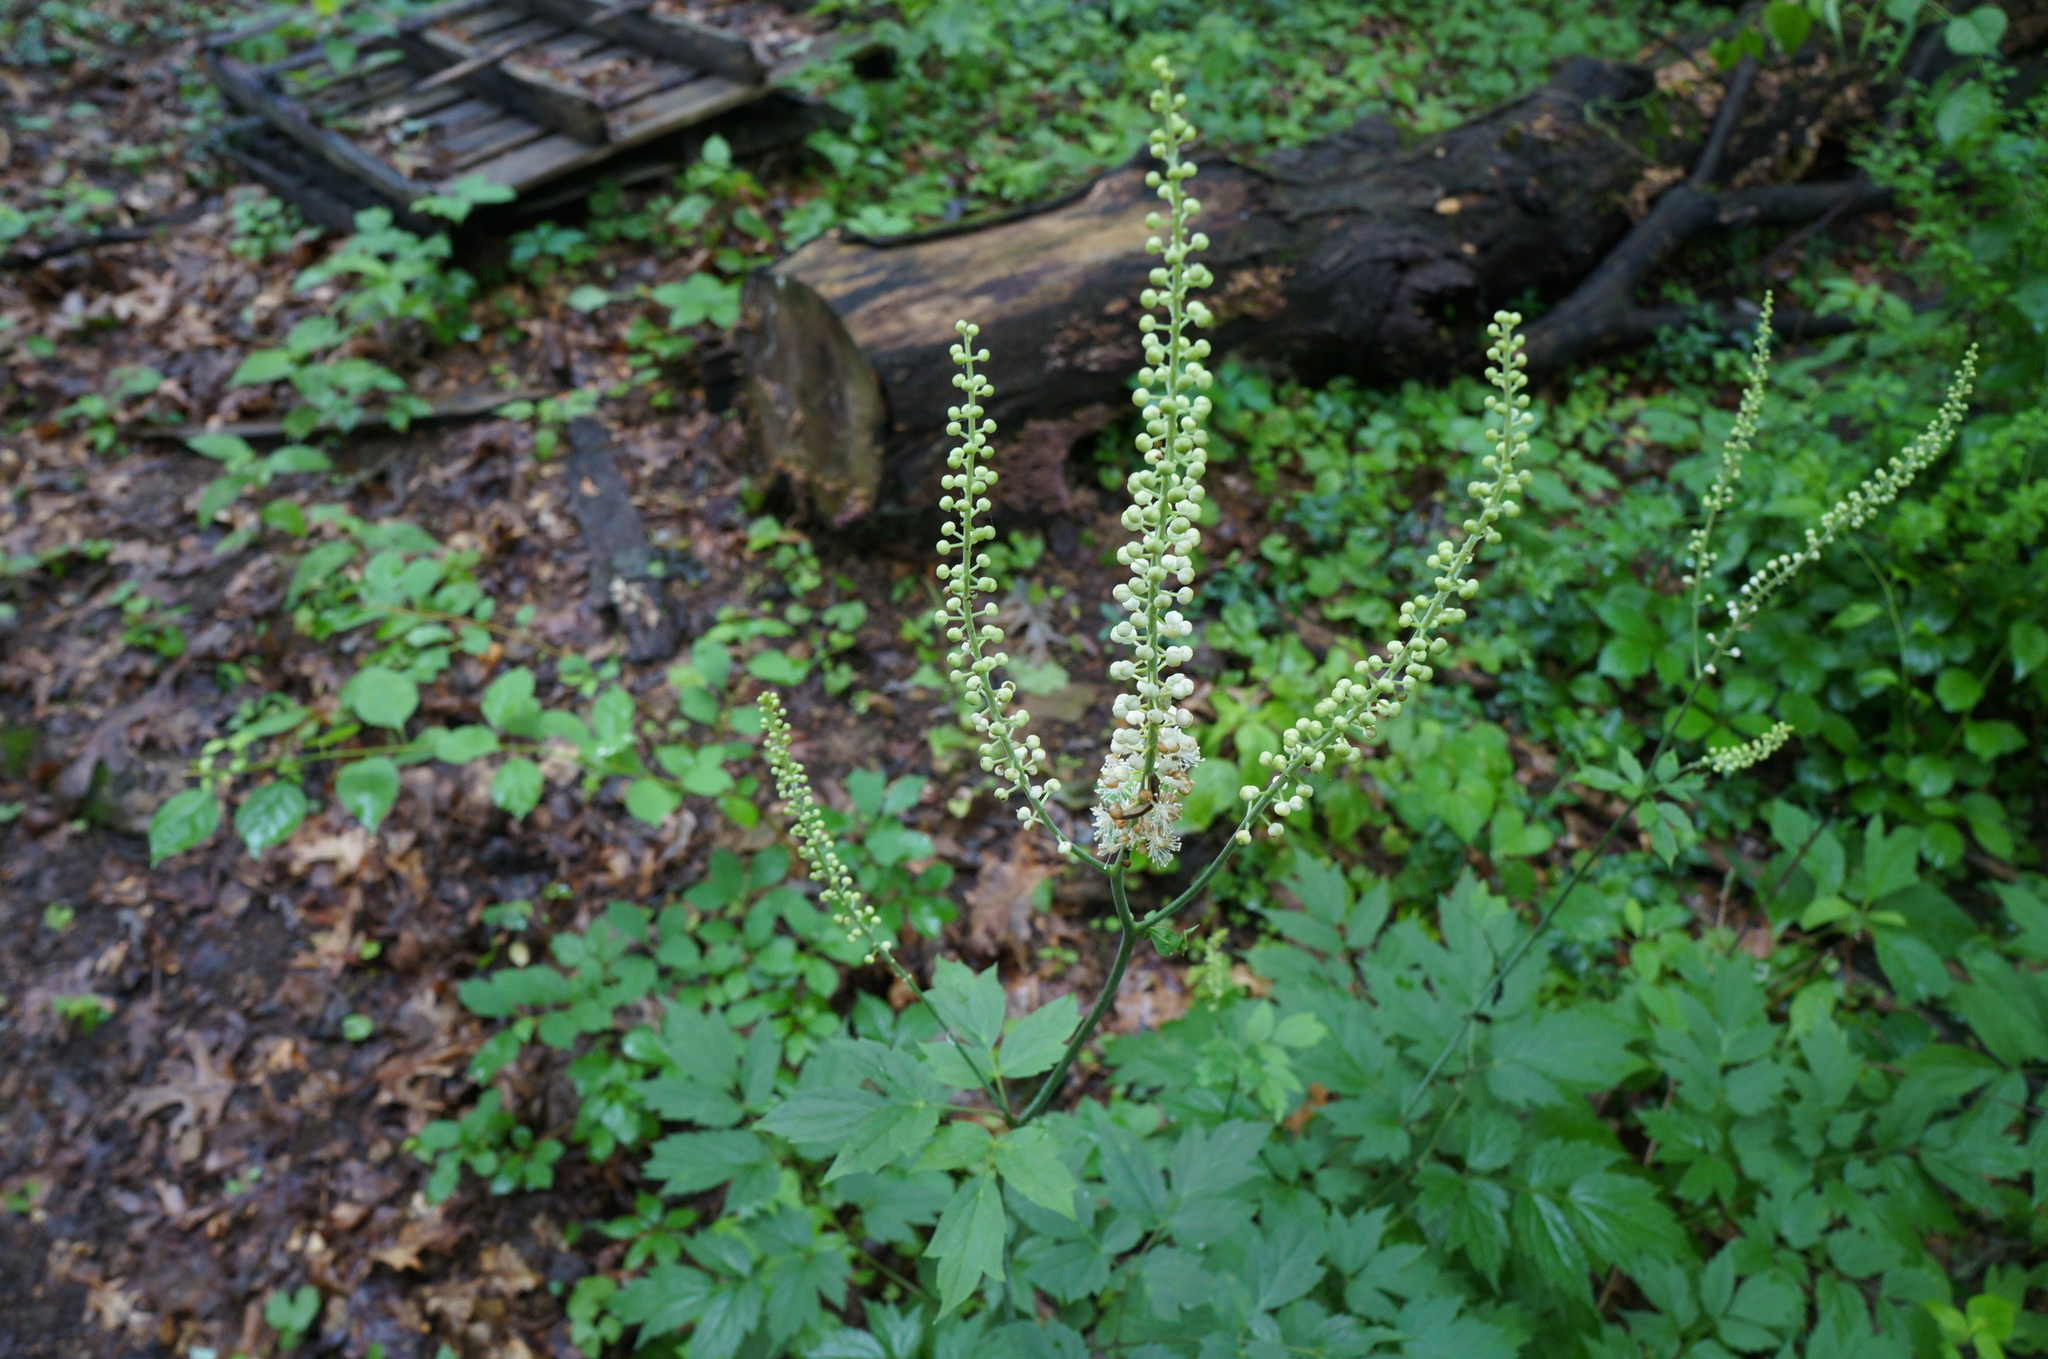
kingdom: Plantae
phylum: Tracheophyta
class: Magnoliopsida
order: Ranunculales
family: Ranunculaceae
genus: Actaea
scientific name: Actaea racemosa
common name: Black cohosh
